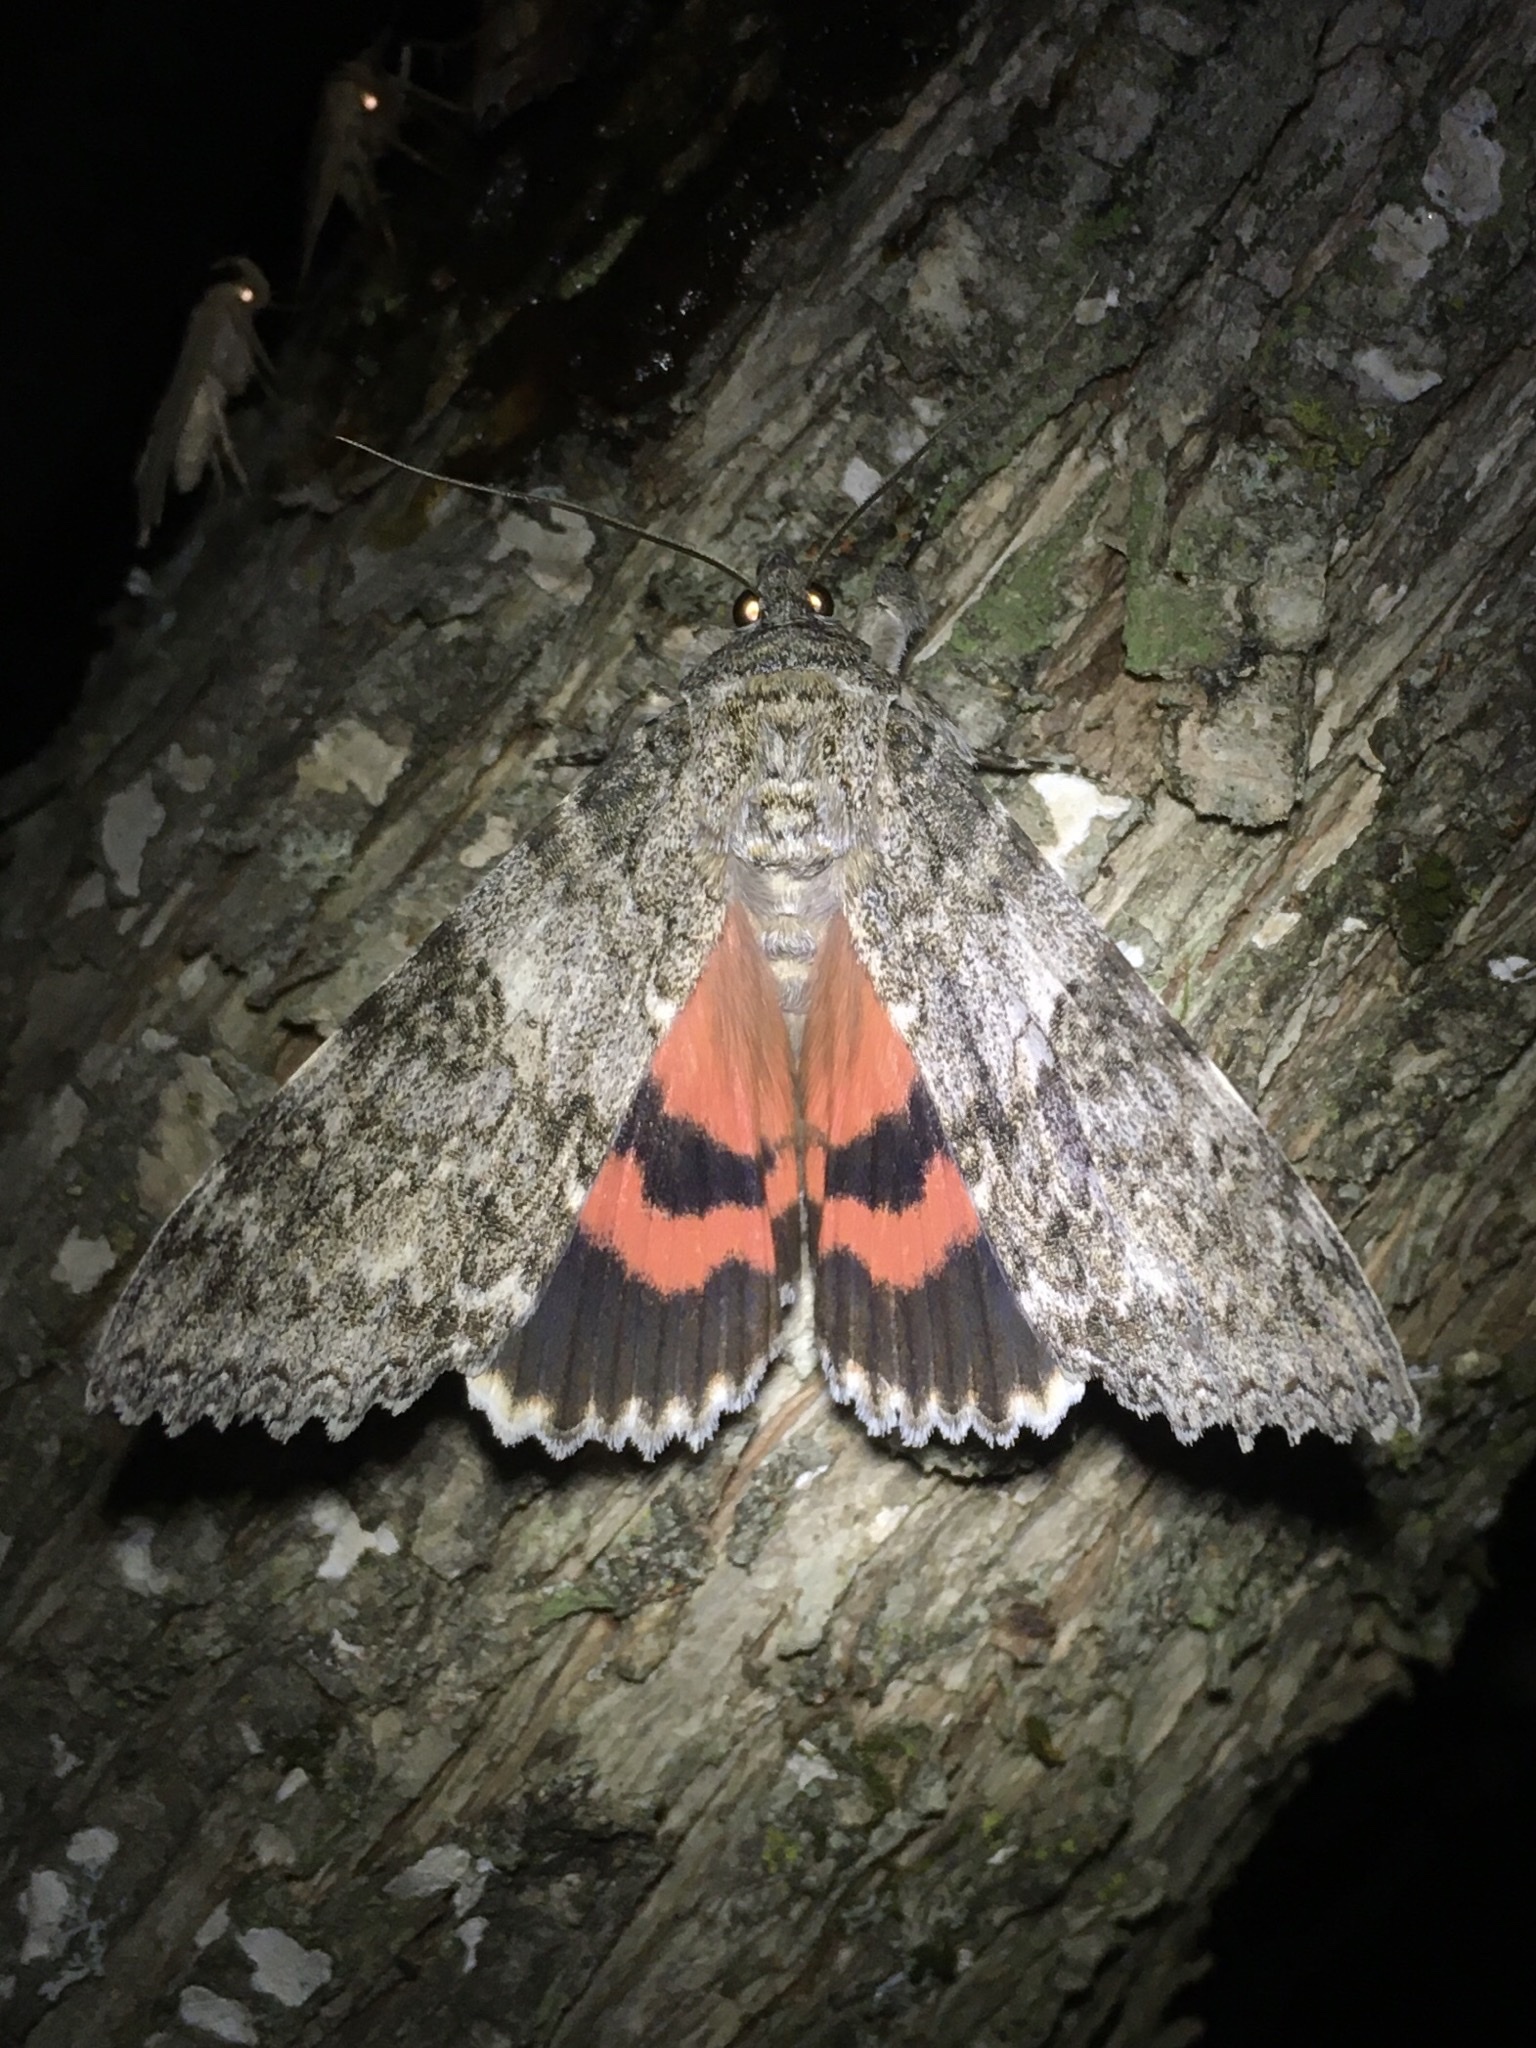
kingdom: Animalia
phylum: Arthropoda
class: Insecta
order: Lepidoptera
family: Erebidae
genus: Catocala
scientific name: Catocala unijuga
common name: Once-married underwing
